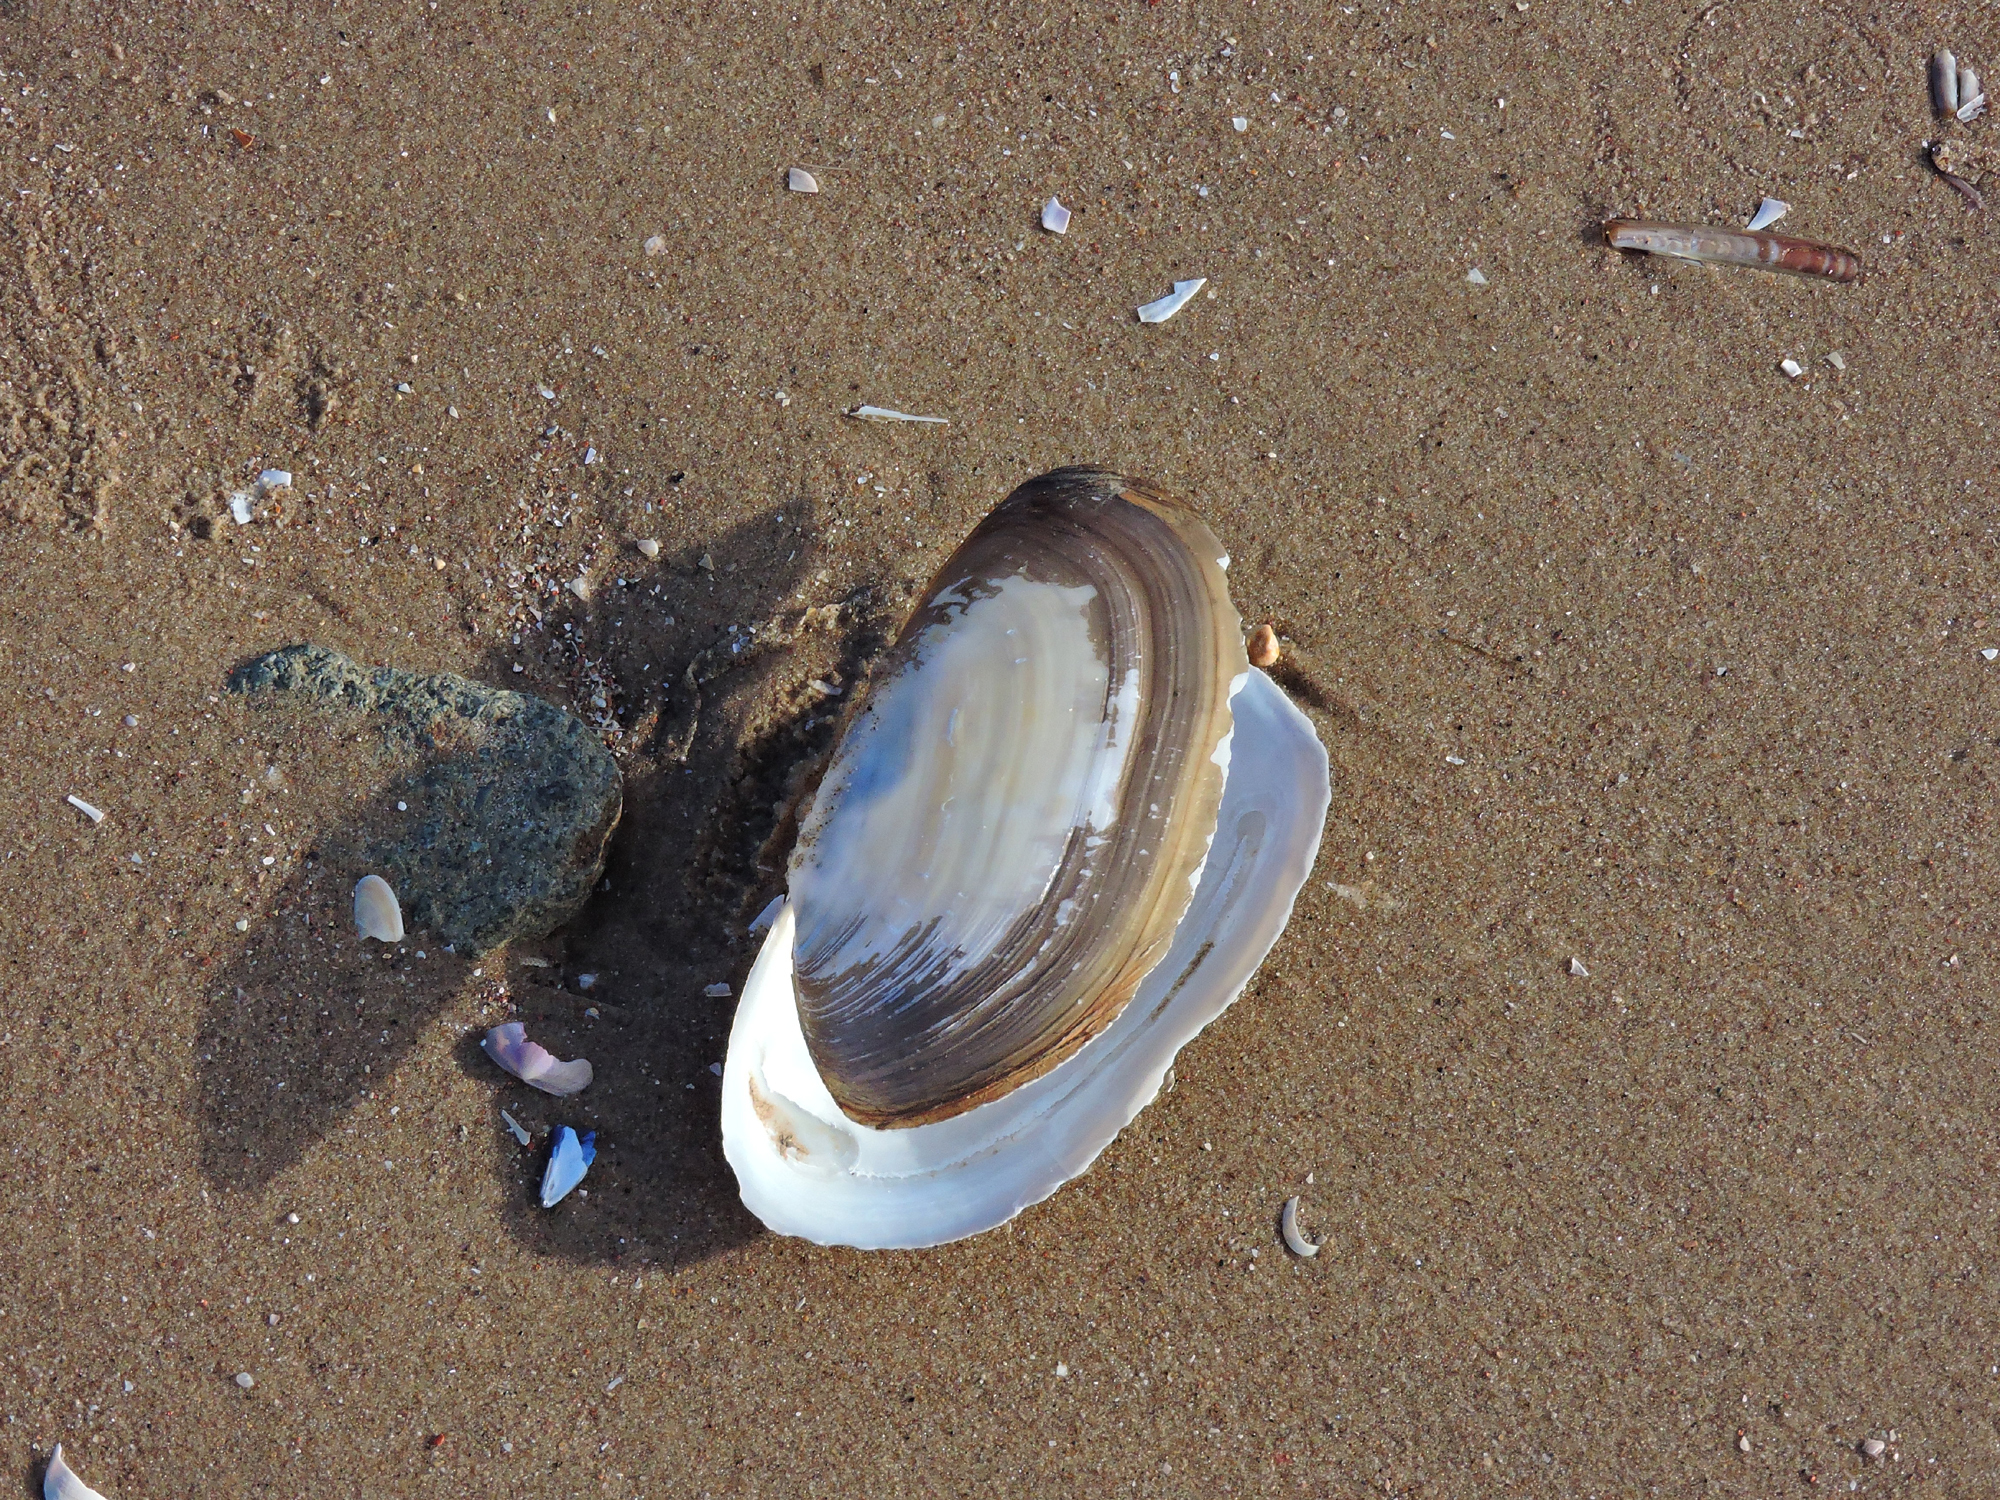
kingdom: Animalia
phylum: Mollusca
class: Bivalvia
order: Venerida
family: Mactridae
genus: Lutraria
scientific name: Lutraria lutraria
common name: Common otter shell
